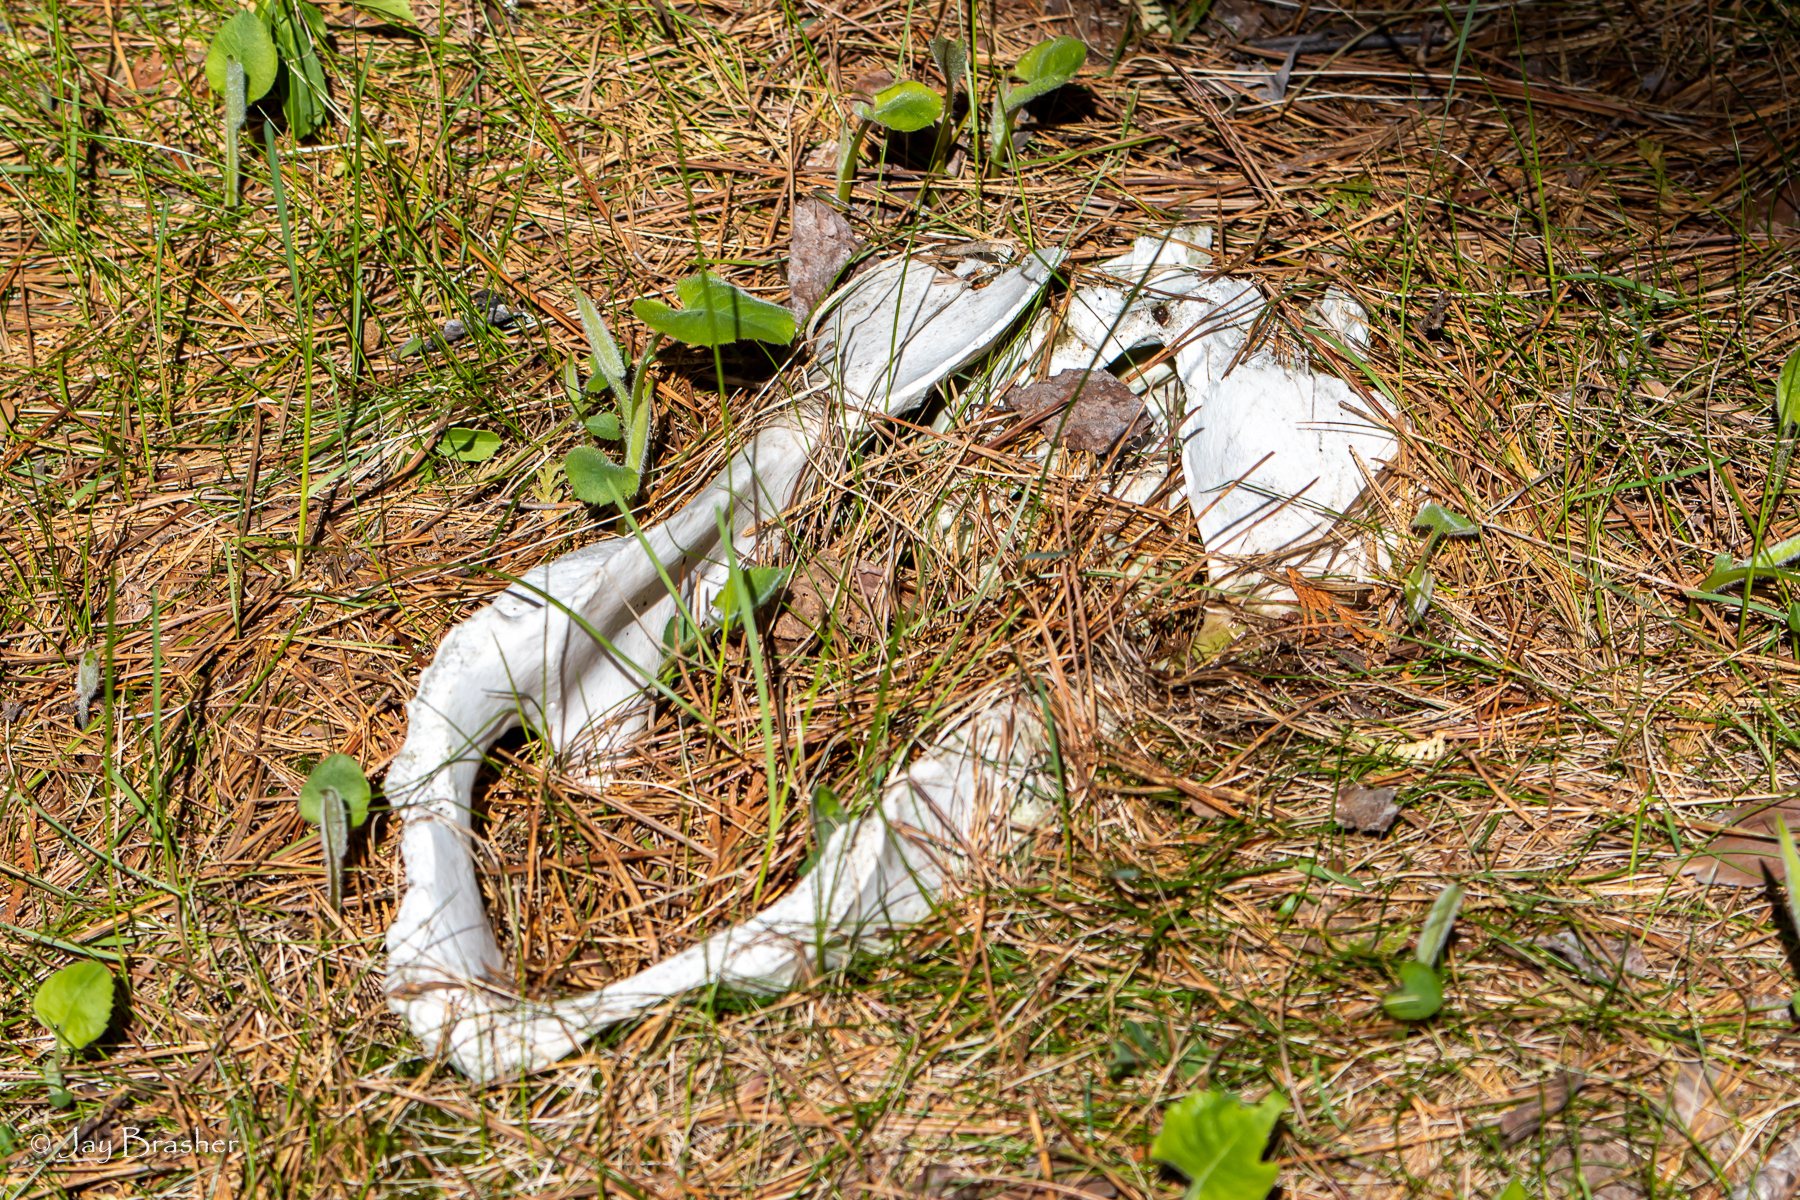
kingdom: Animalia
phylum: Chordata
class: Mammalia
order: Artiodactyla
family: Cervidae
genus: Alces
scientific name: Alces americanus
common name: Moose
